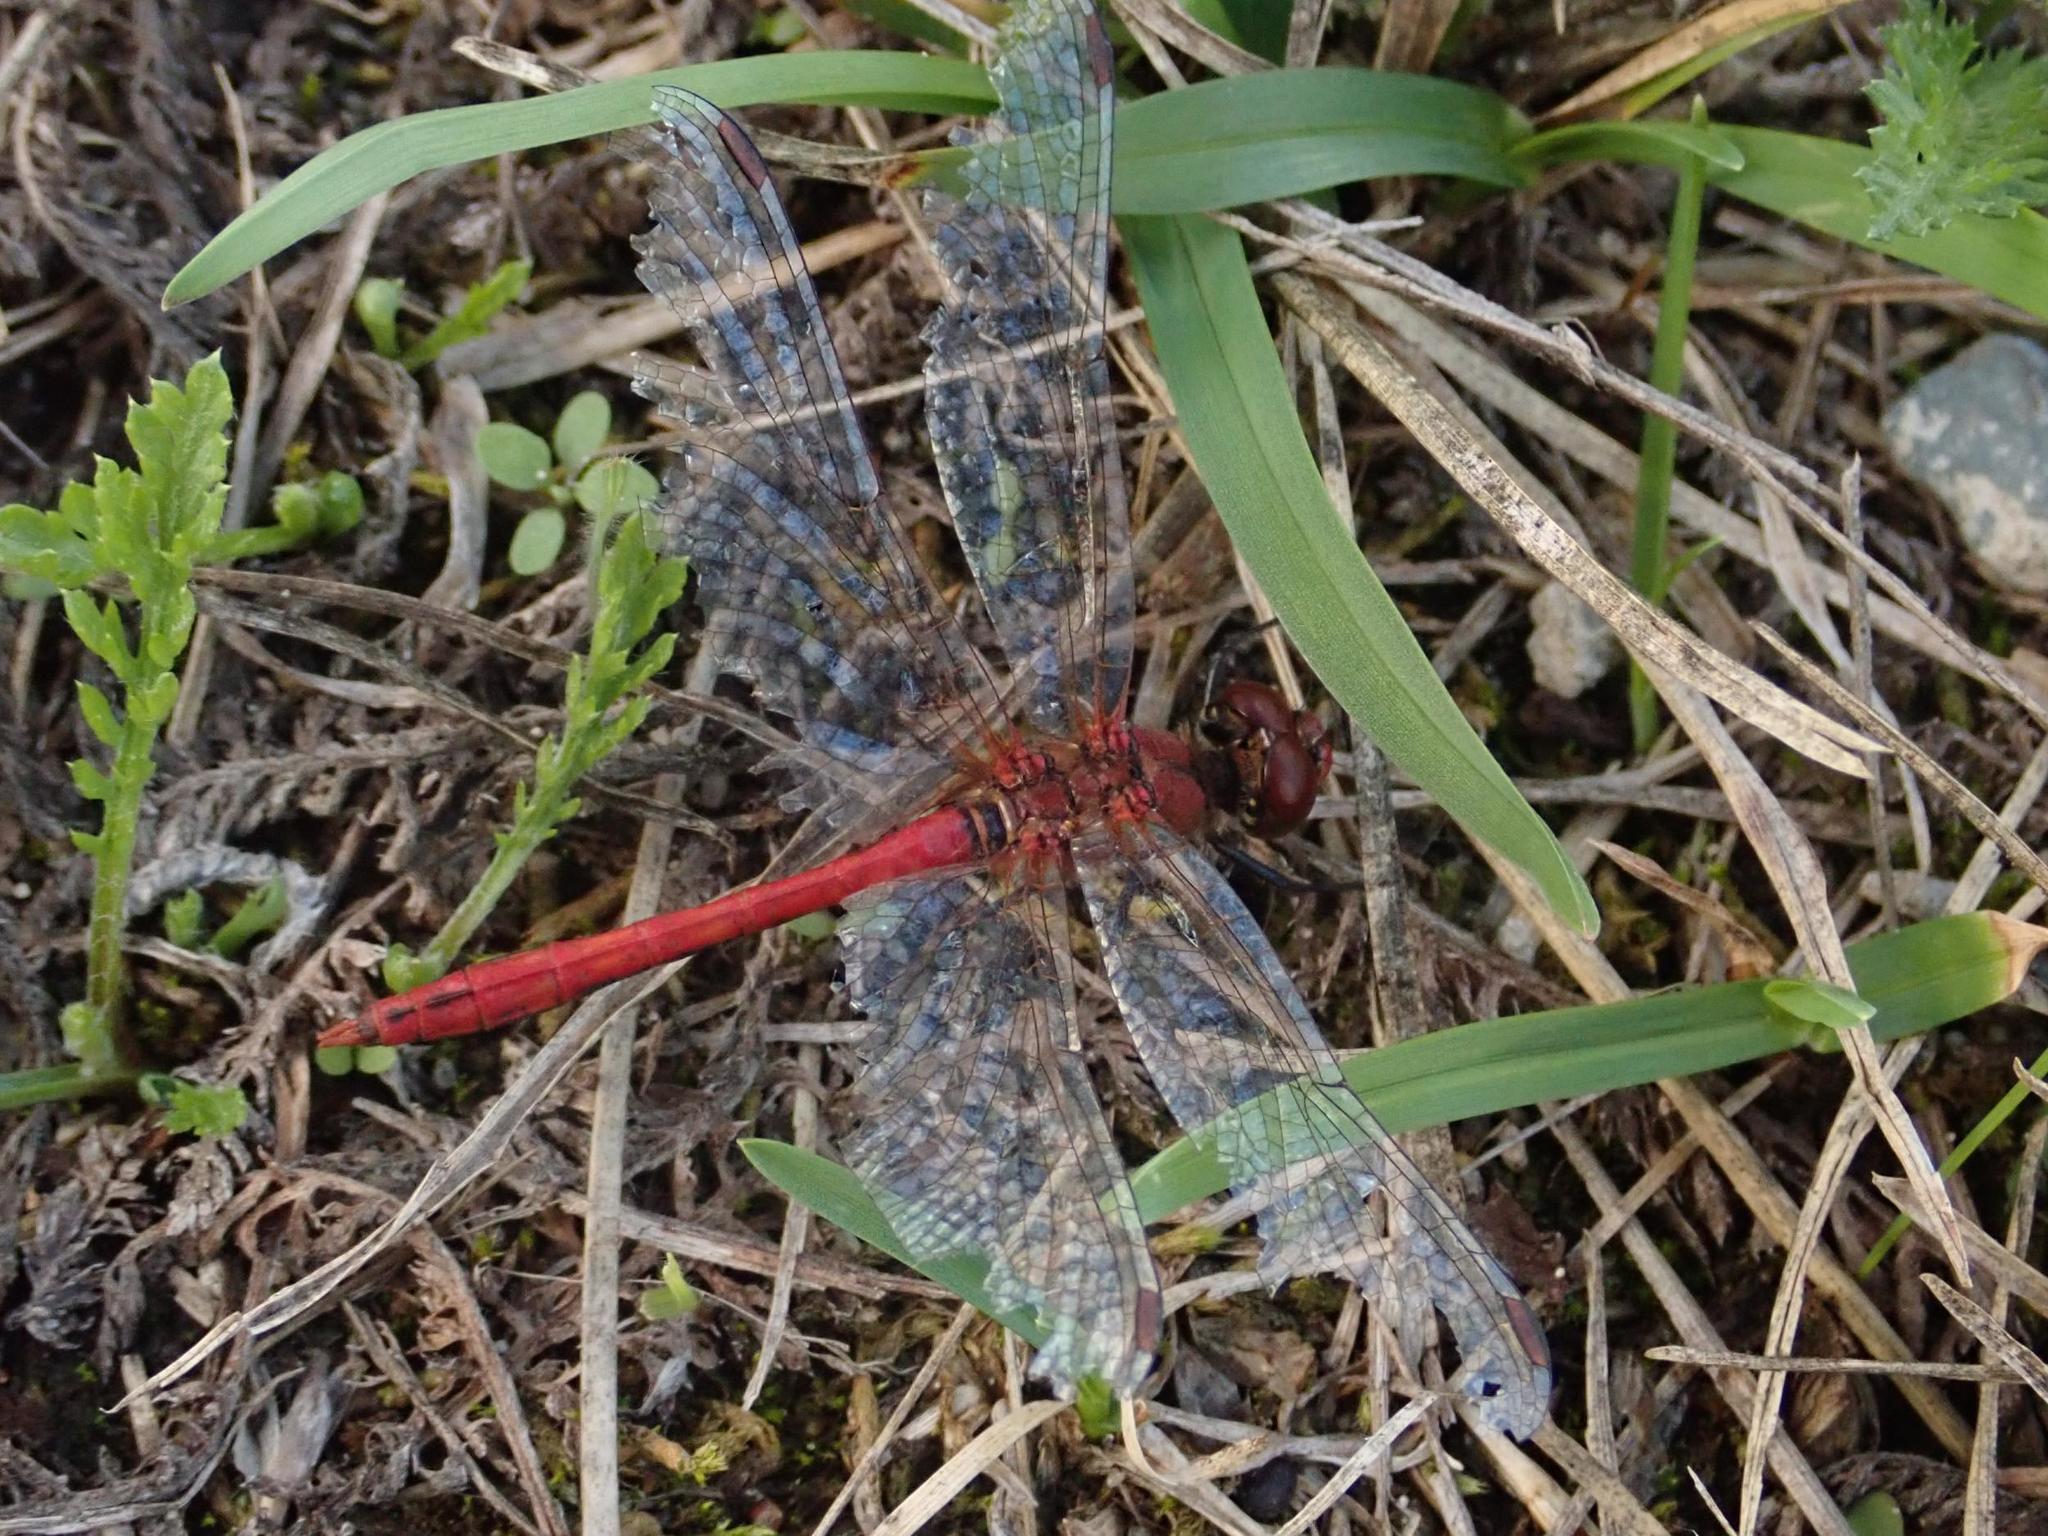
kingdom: Animalia
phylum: Arthropoda
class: Insecta
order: Odonata
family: Libellulidae
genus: Sympetrum
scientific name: Sympetrum sanguineum
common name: Ruddy darter
